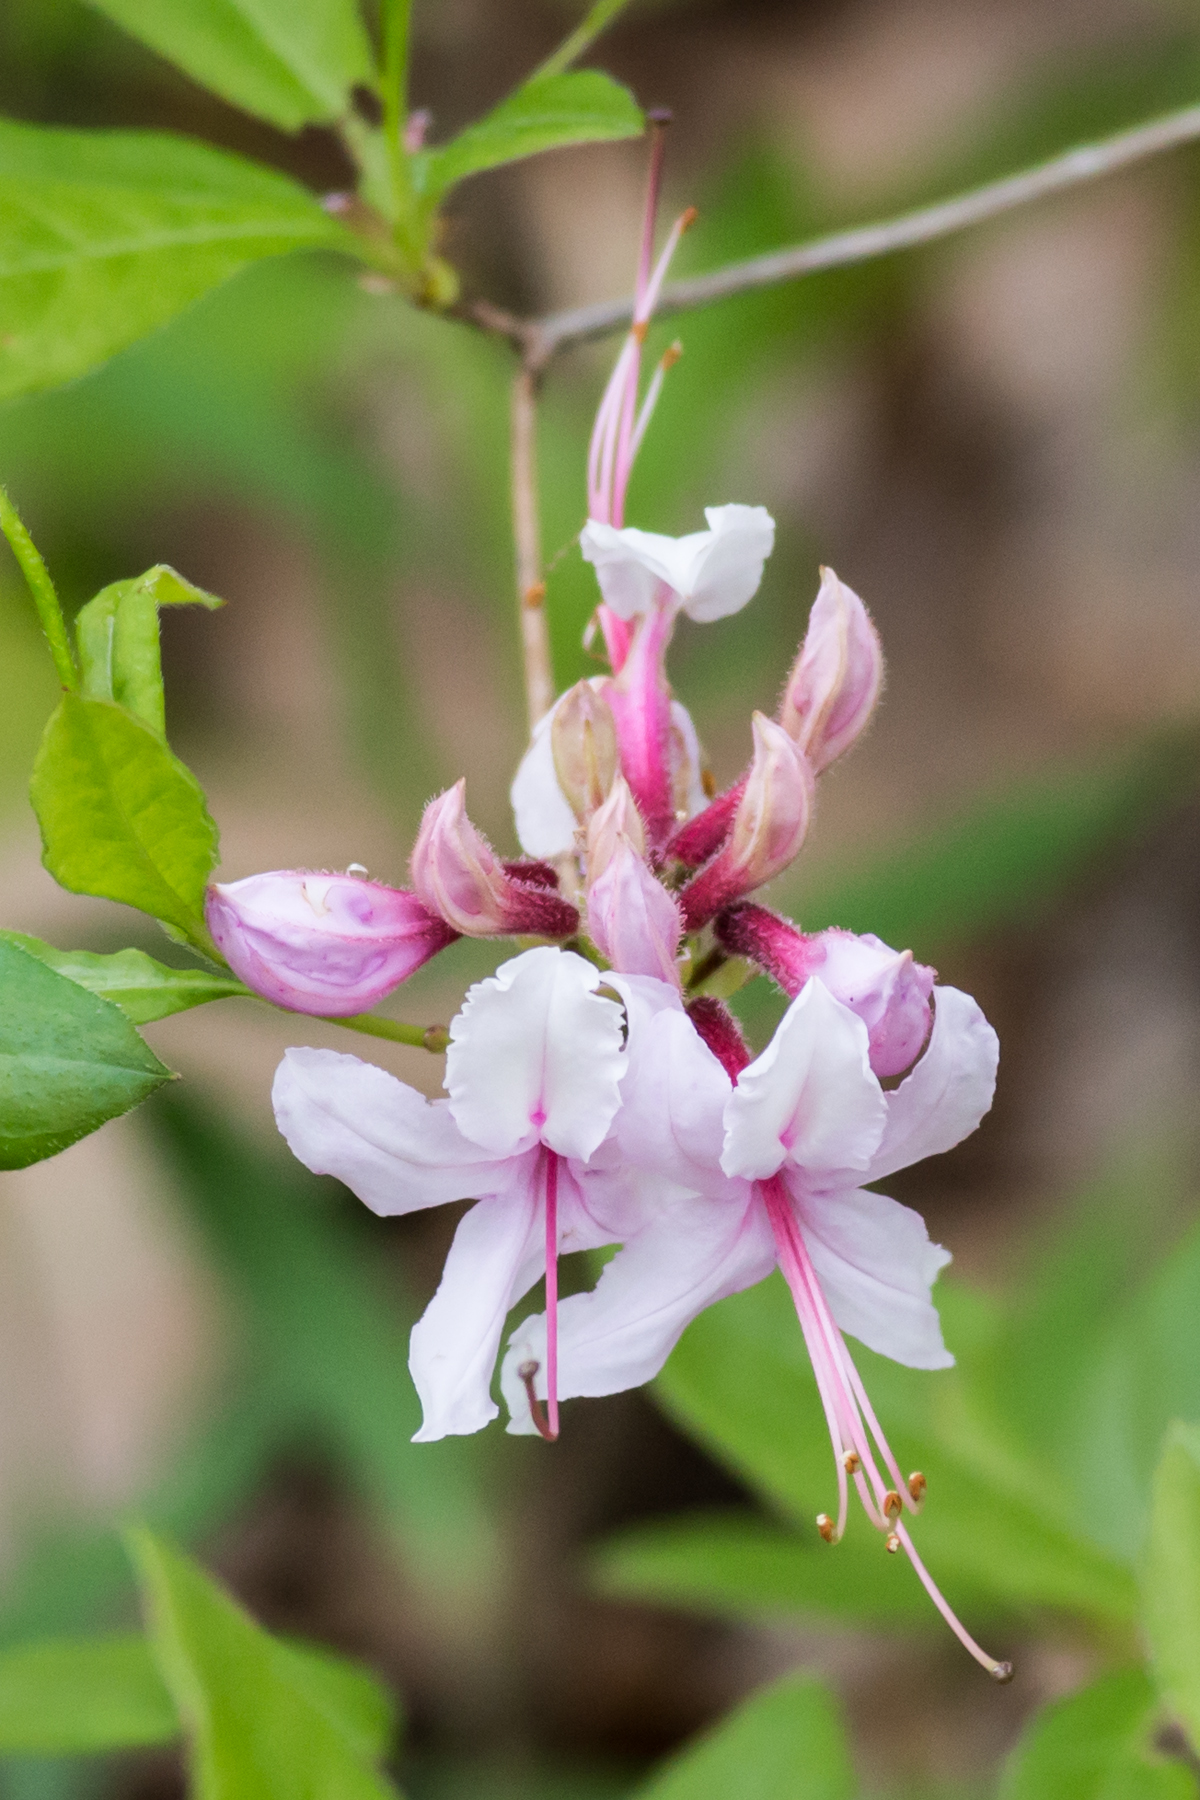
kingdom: Plantae
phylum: Tracheophyta
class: Magnoliopsida
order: Ericales
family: Ericaceae
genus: Rhododendron
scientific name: Rhododendron periclymenoides
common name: Election-pink
